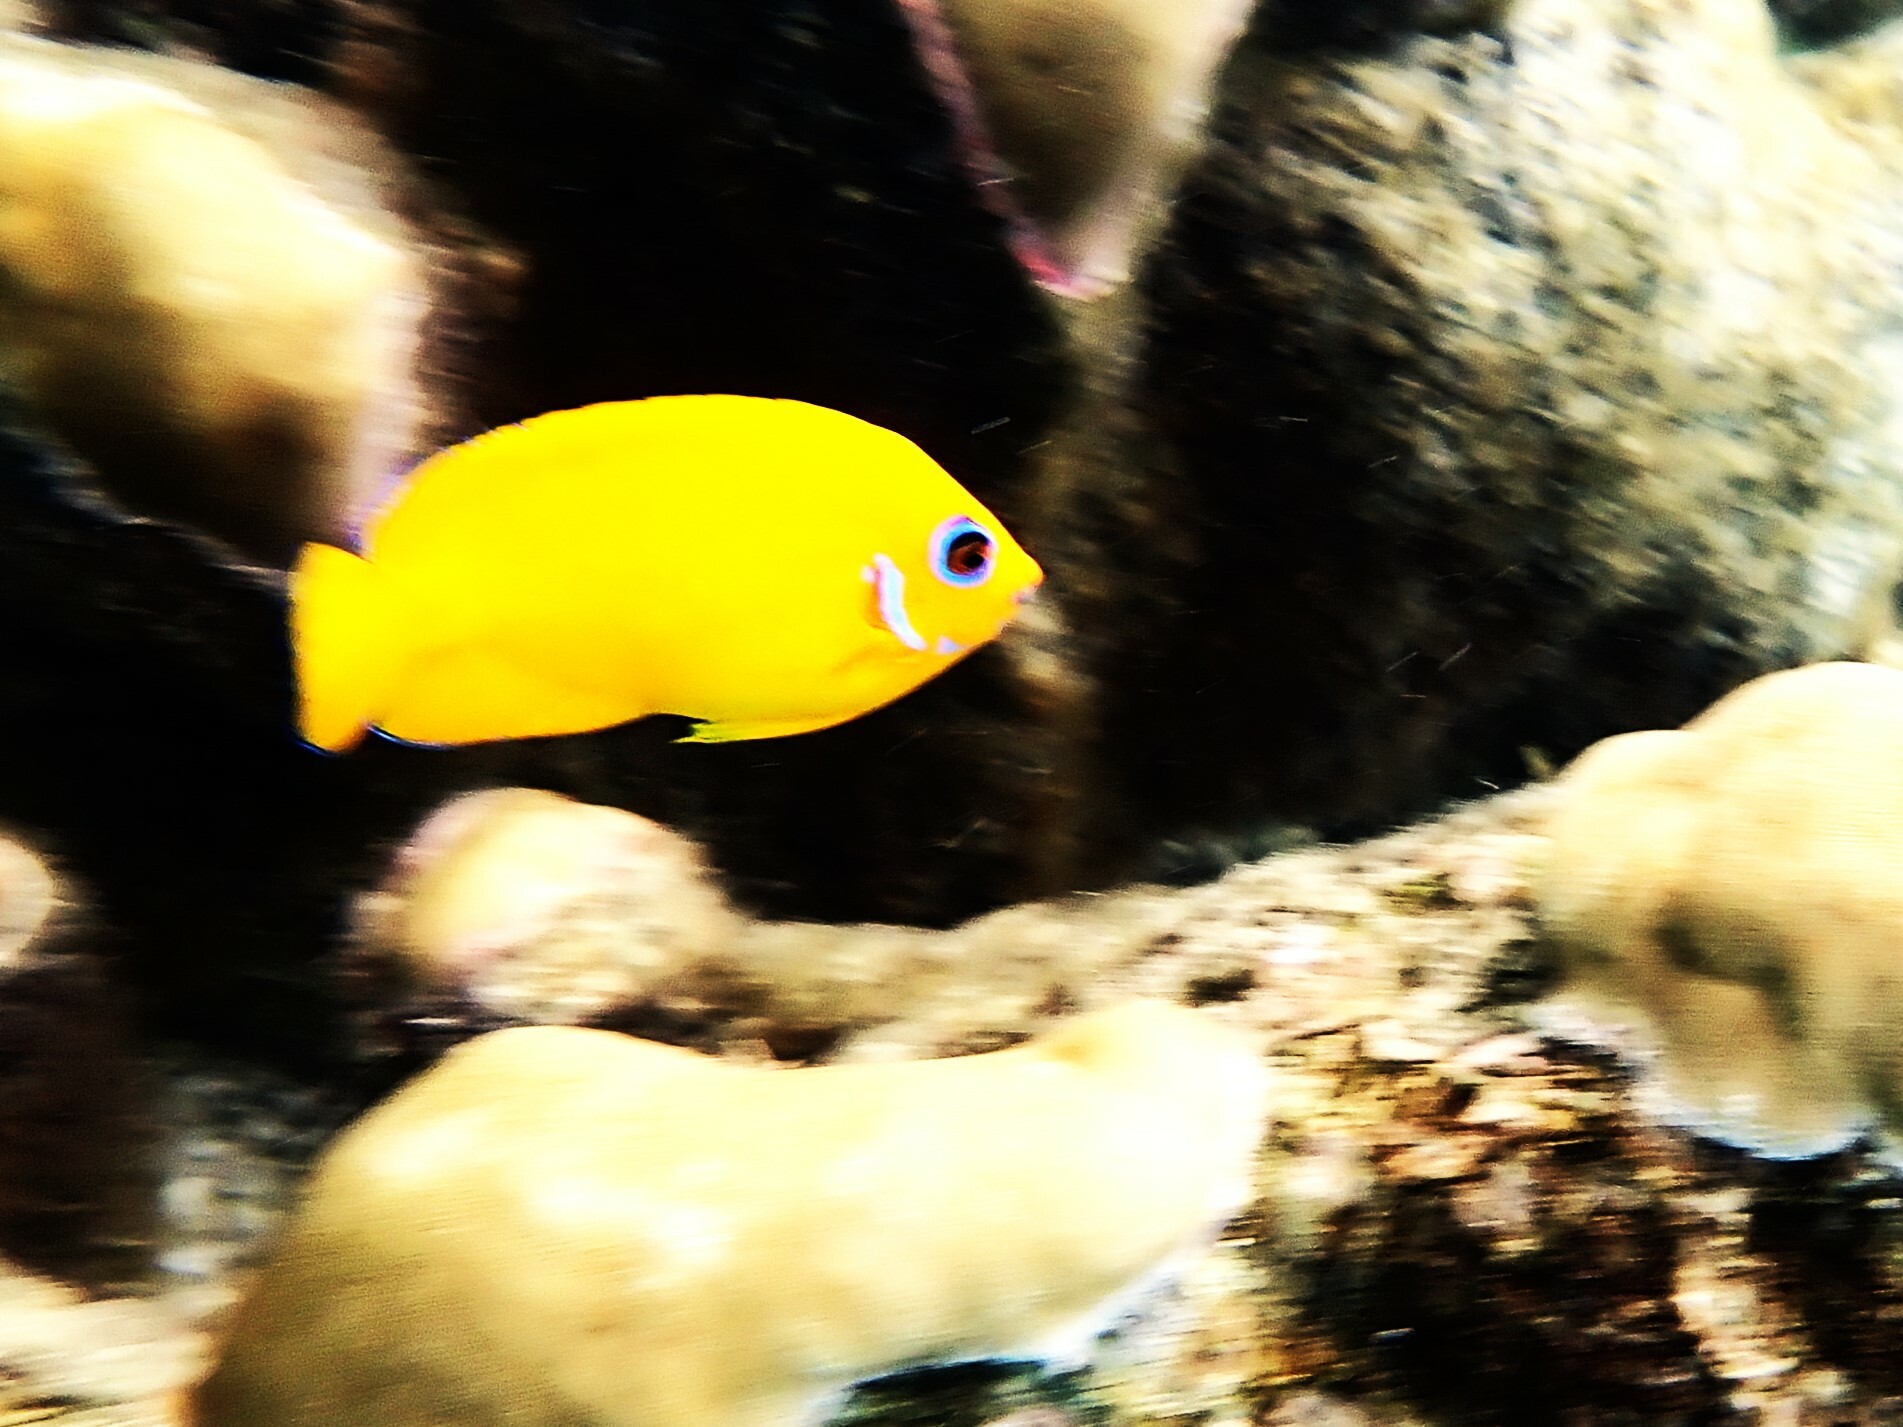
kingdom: Animalia
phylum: Chordata
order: Perciformes
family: Pomacanthidae
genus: Centropyge
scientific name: Centropyge flavissima
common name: Lemonpeel angelfish
